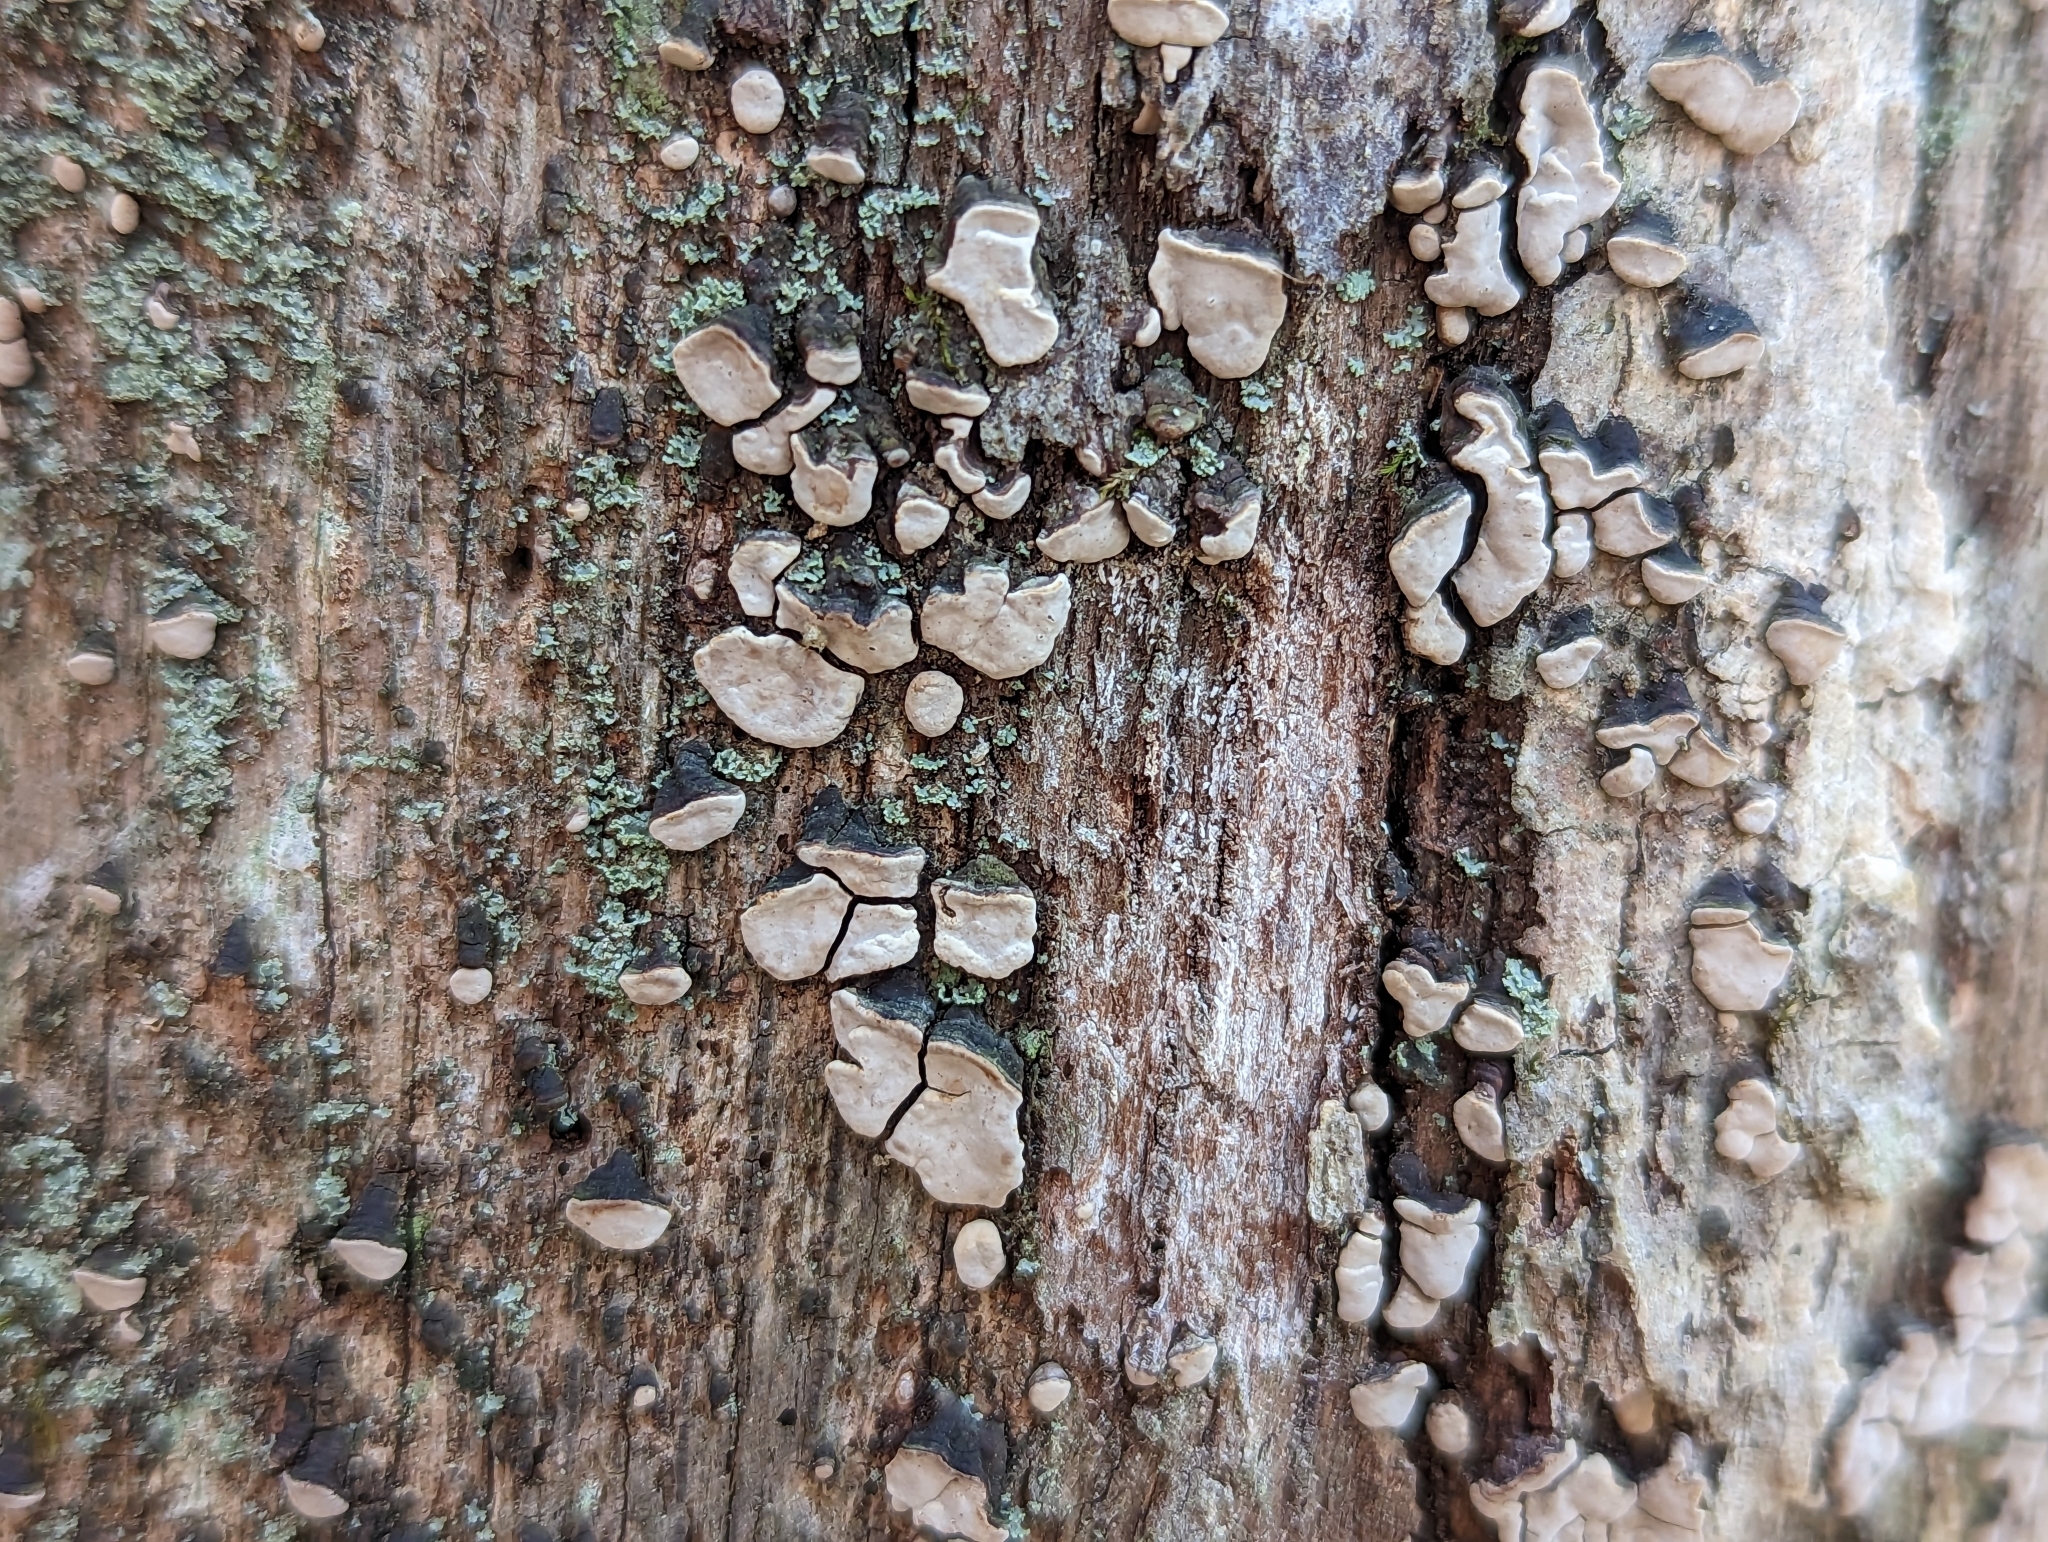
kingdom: Fungi
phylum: Basidiomycota
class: Agaricomycetes
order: Russulales
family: Stereaceae
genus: Xylobolus
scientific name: Xylobolus frustulatus
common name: Ceramic parchment
